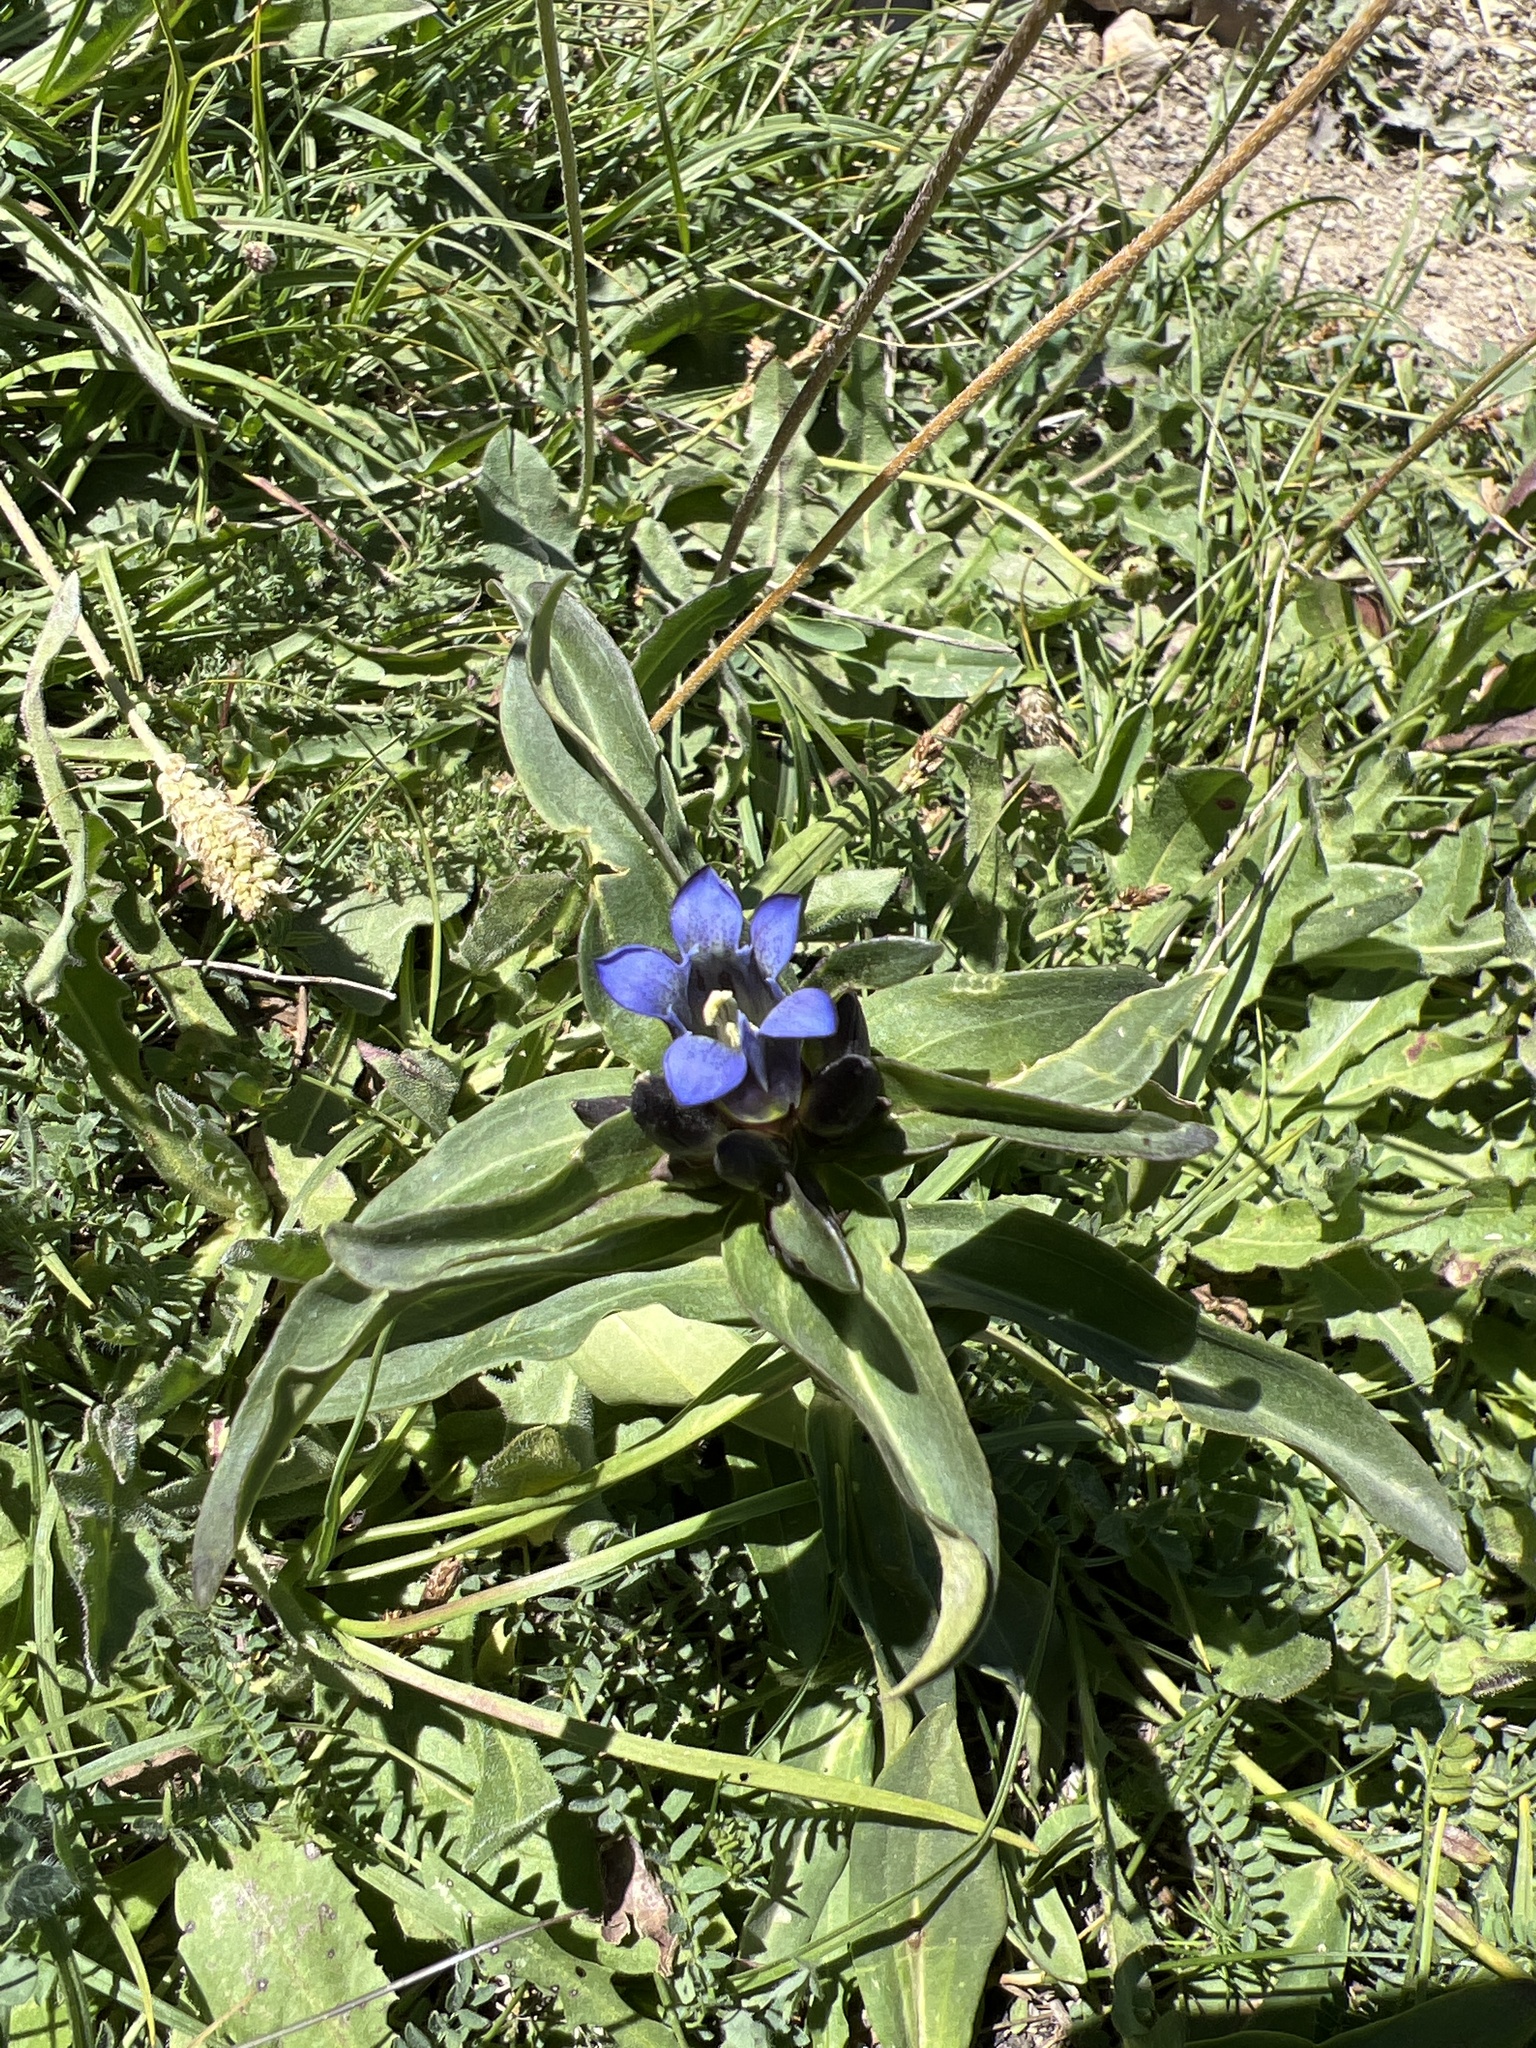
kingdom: Plantae
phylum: Tracheophyta
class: Magnoliopsida
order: Gentianales
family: Gentianaceae
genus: Gentiana
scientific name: Gentiana cruciata
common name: Cross gentian
